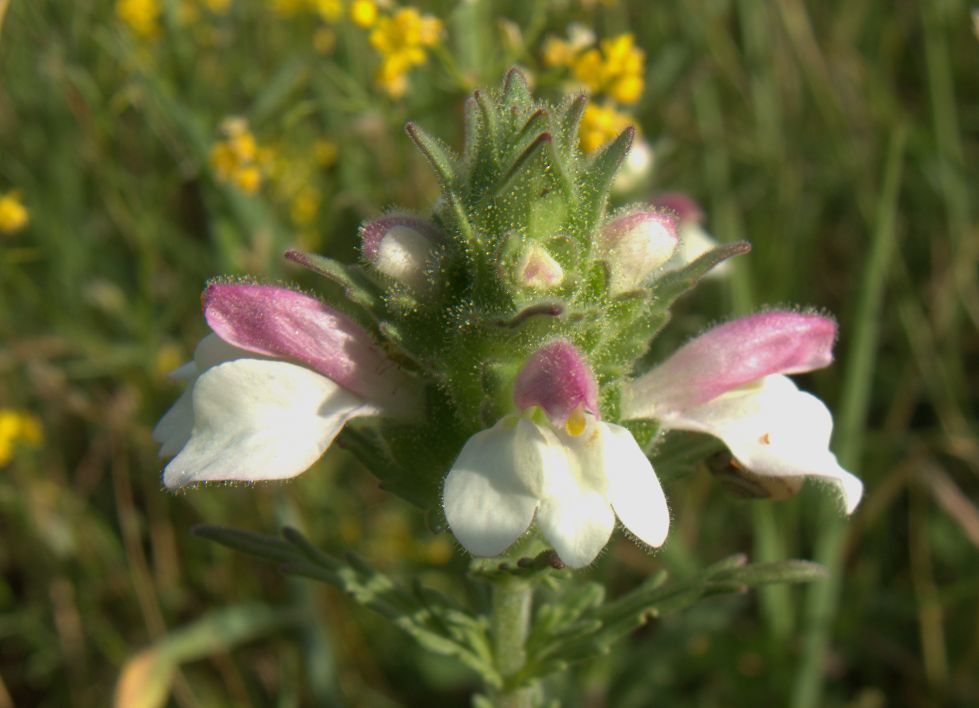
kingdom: Plantae
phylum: Tracheophyta
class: Magnoliopsida
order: Lamiales
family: Orobanchaceae
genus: Bellardia
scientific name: Bellardia trixago
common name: Mediterranean lineseed
